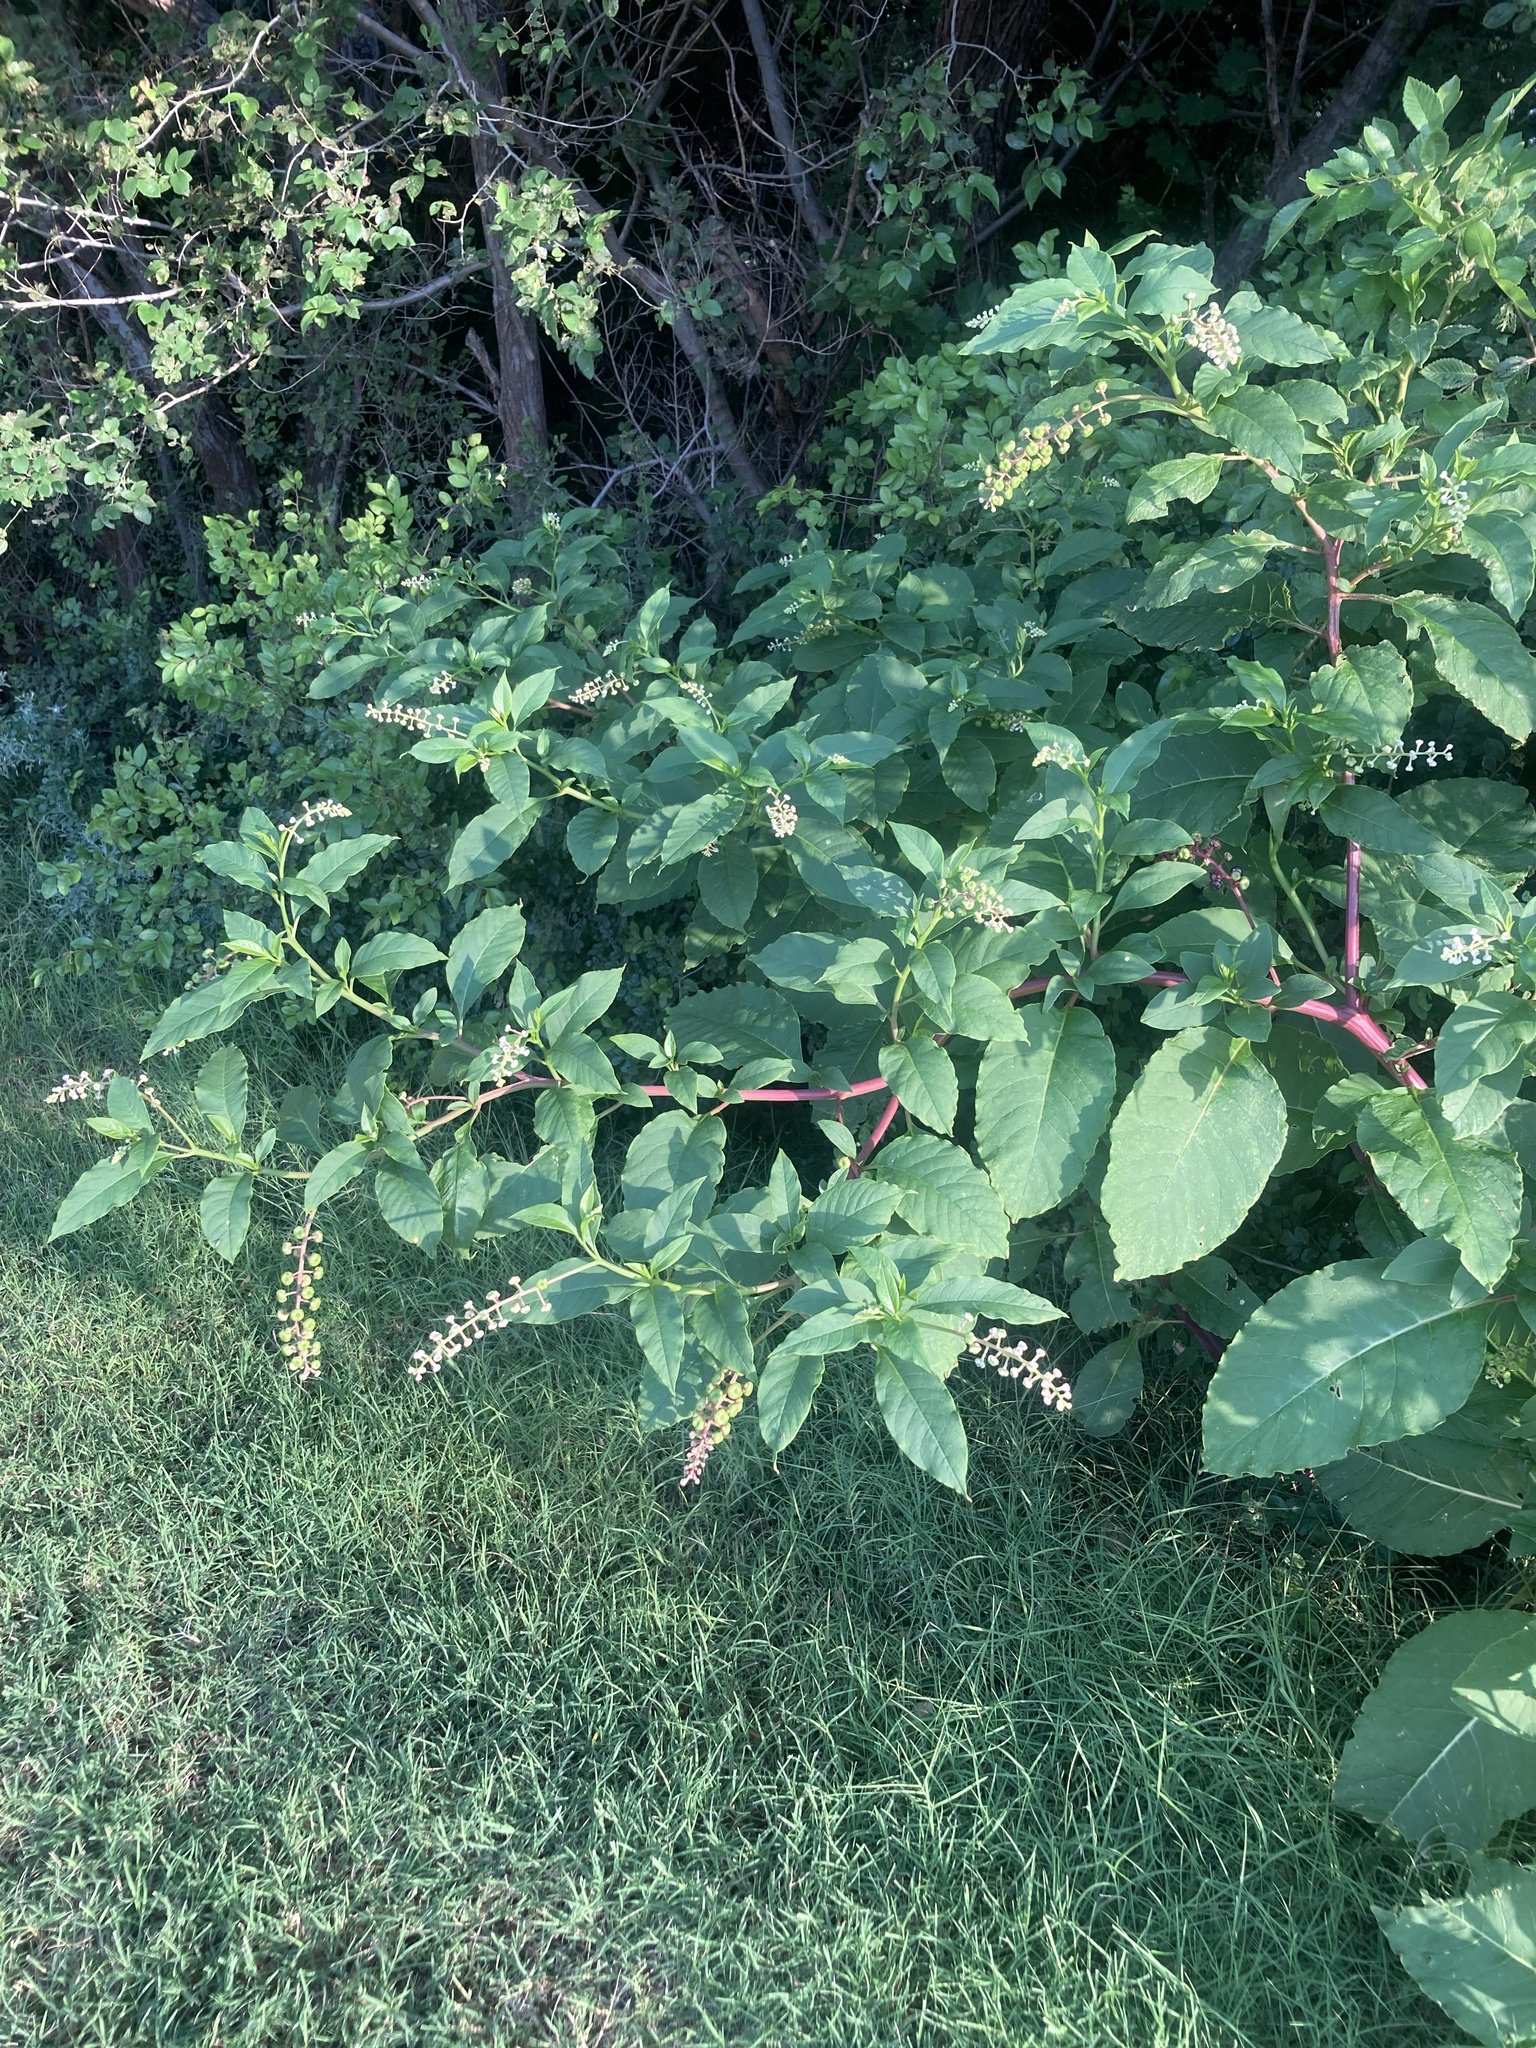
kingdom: Plantae
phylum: Tracheophyta
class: Magnoliopsida
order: Caryophyllales
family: Phytolaccaceae
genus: Phytolacca
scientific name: Phytolacca americana
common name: American pokeweed
